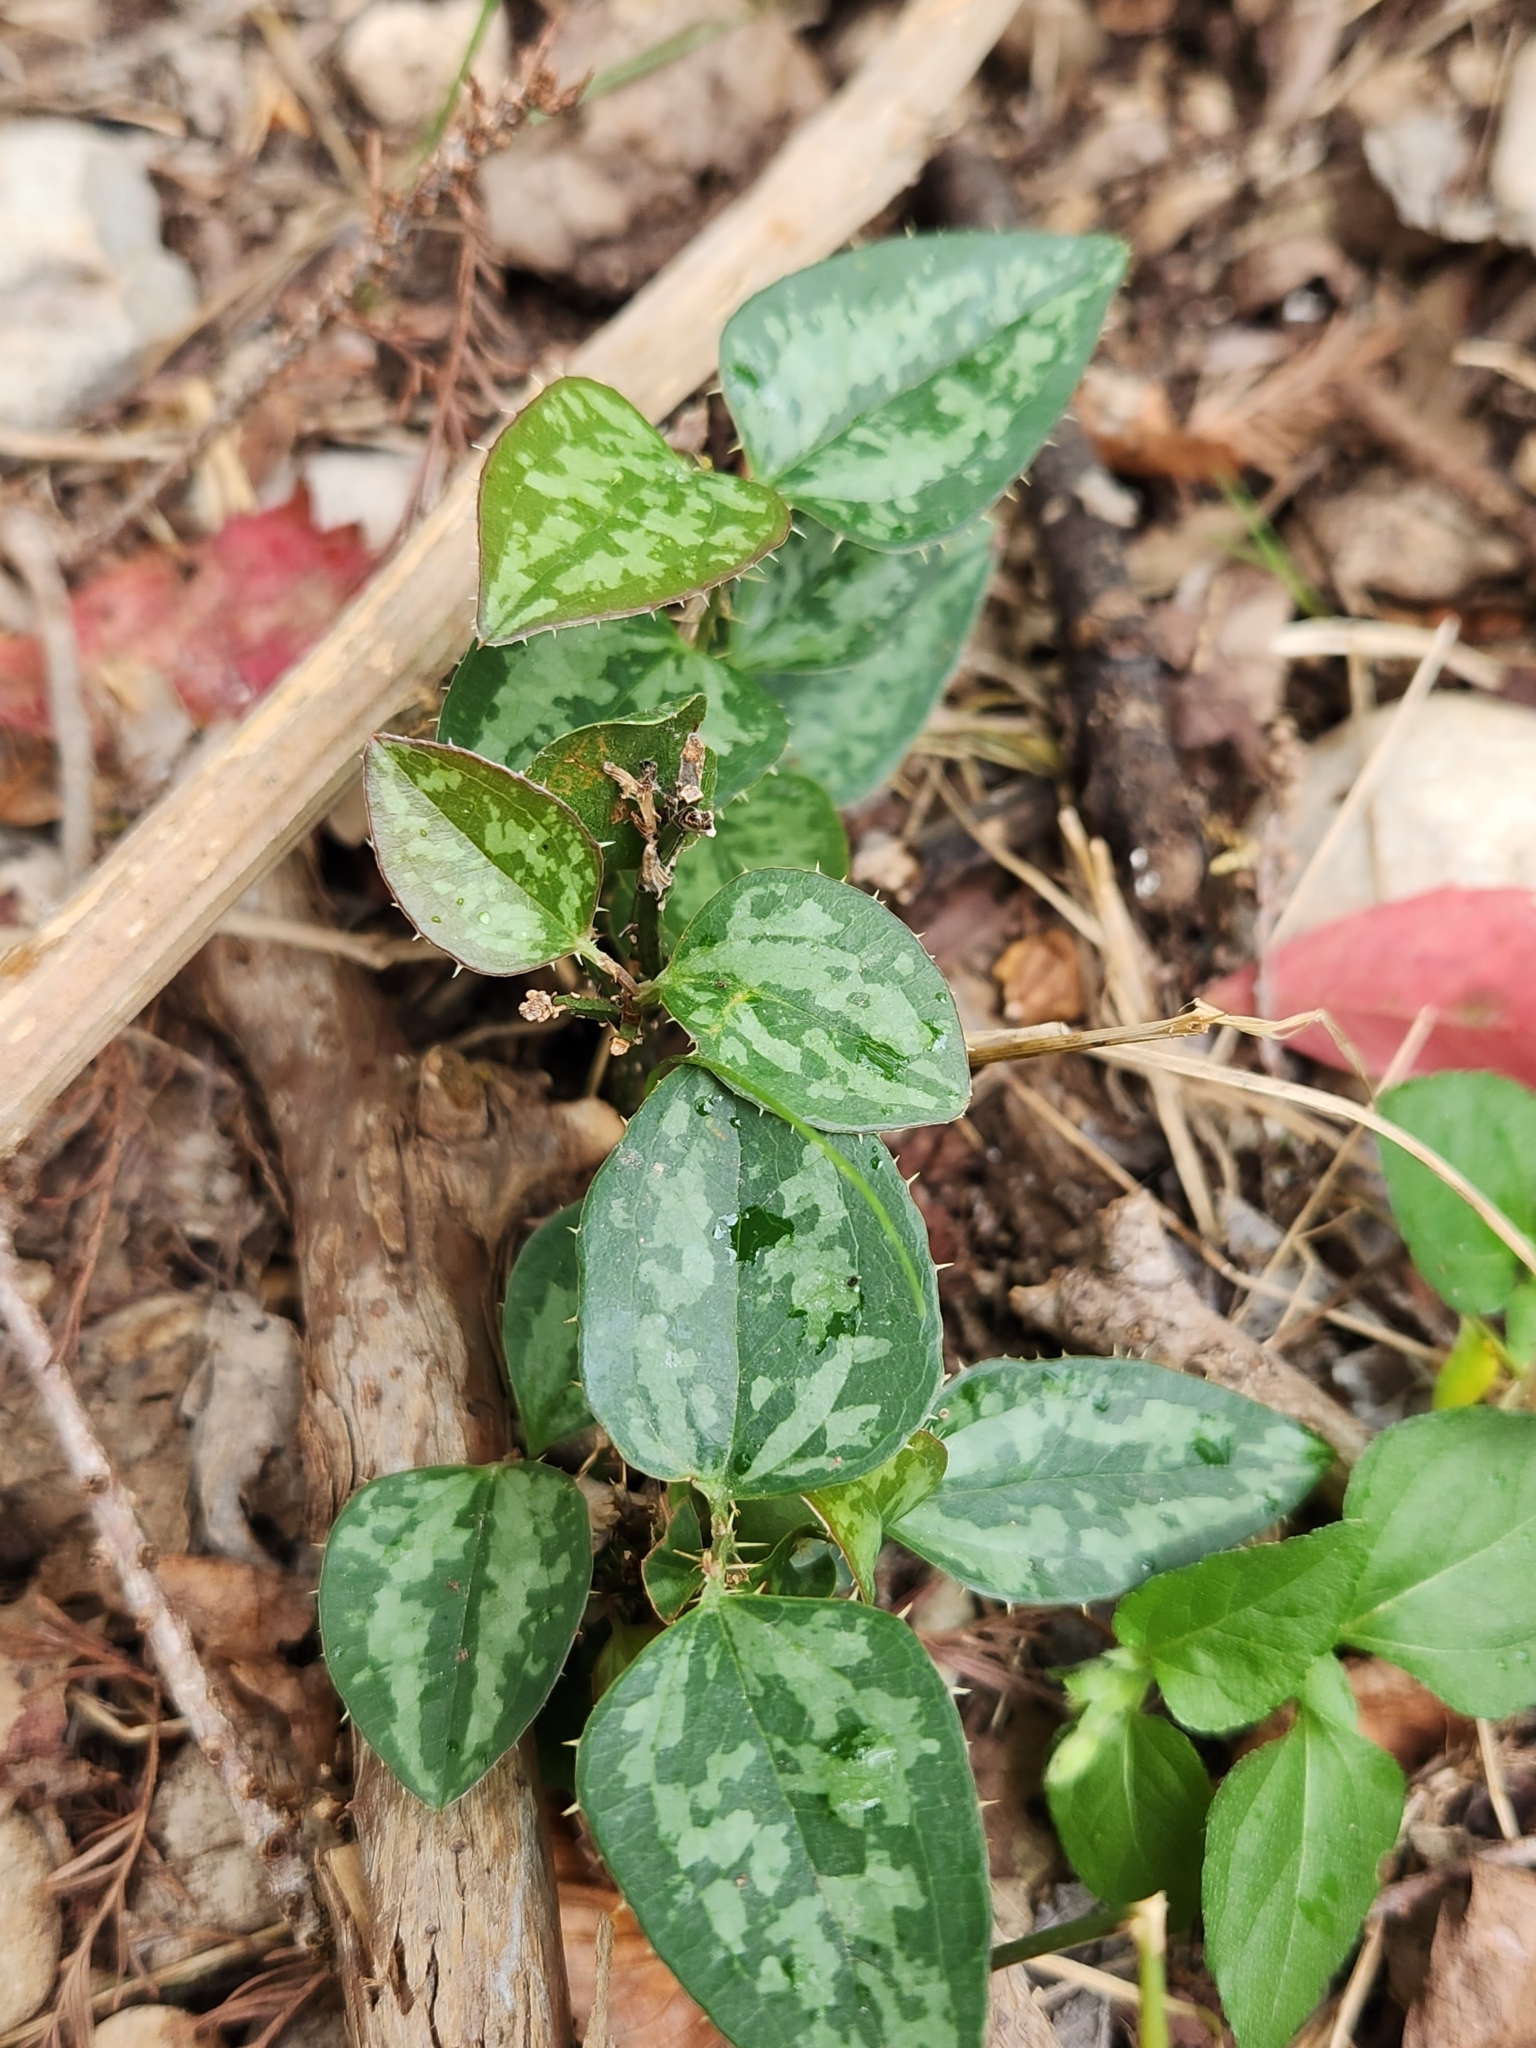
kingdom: Plantae
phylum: Tracheophyta
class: Liliopsida
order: Liliales
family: Smilacaceae
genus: Smilax
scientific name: Smilax bona-nox
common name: Catbrier
